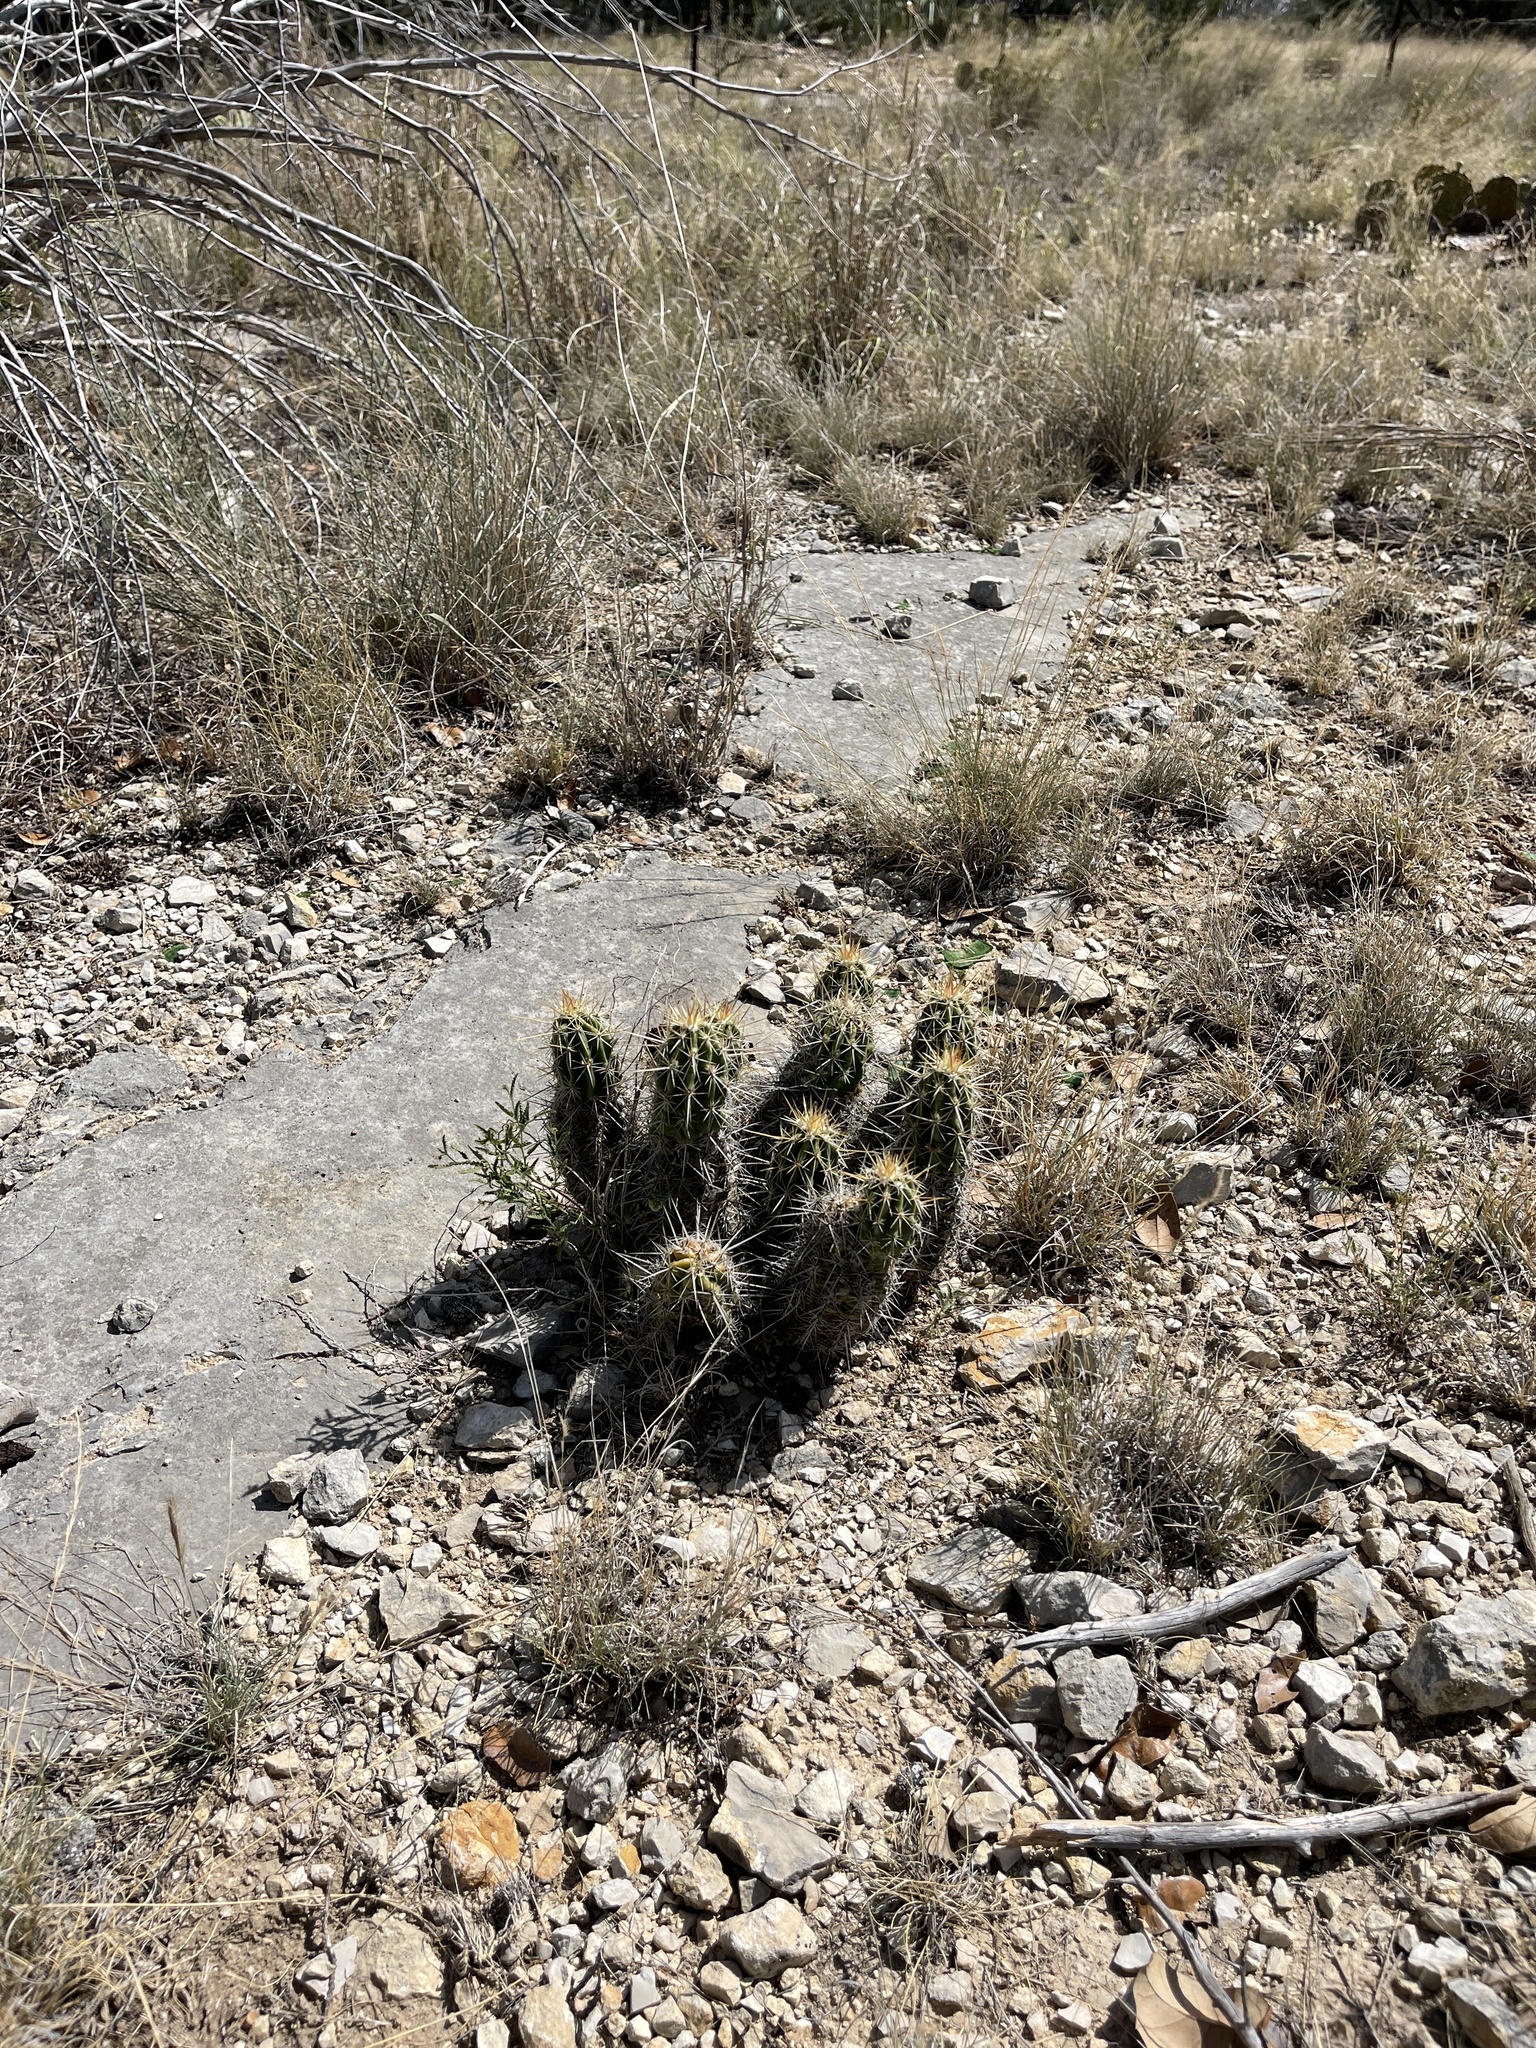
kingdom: Plantae
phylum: Tracheophyta
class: Magnoliopsida
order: Caryophyllales
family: Cactaceae
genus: Echinocereus
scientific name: Echinocereus enneacanthus
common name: Pitaya
